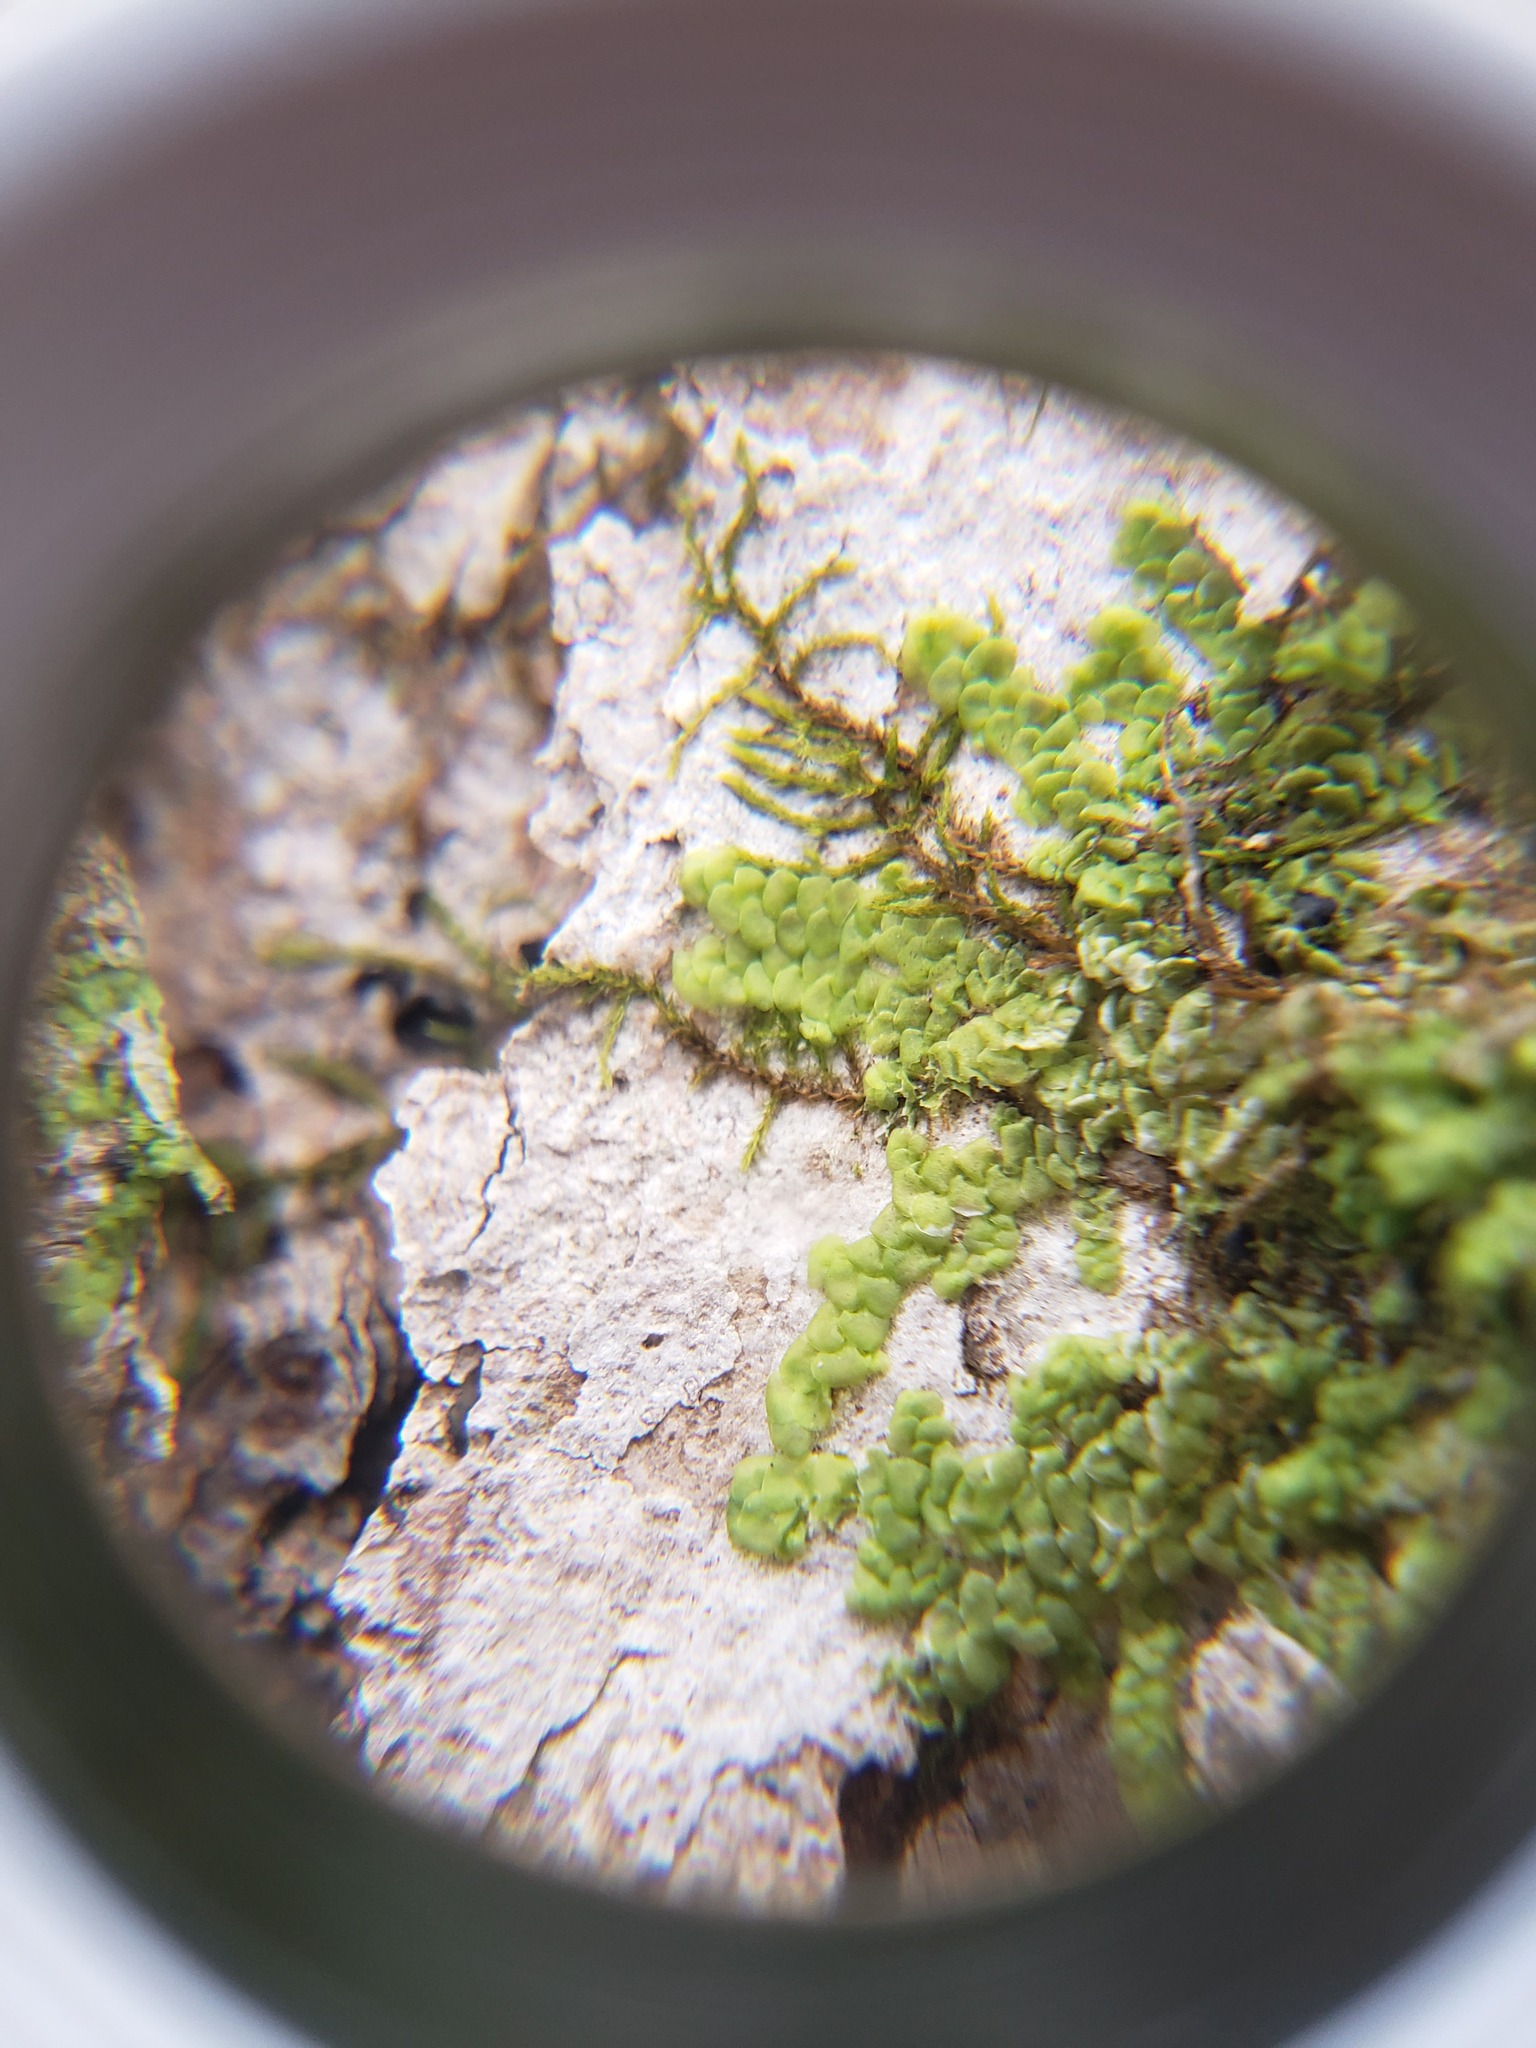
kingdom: Plantae
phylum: Marchantiophyta
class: Jungermanniopsida
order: Porellales
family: Radulaceae
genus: Radula
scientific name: Radula complanata
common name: Flat-leaved scalewort
